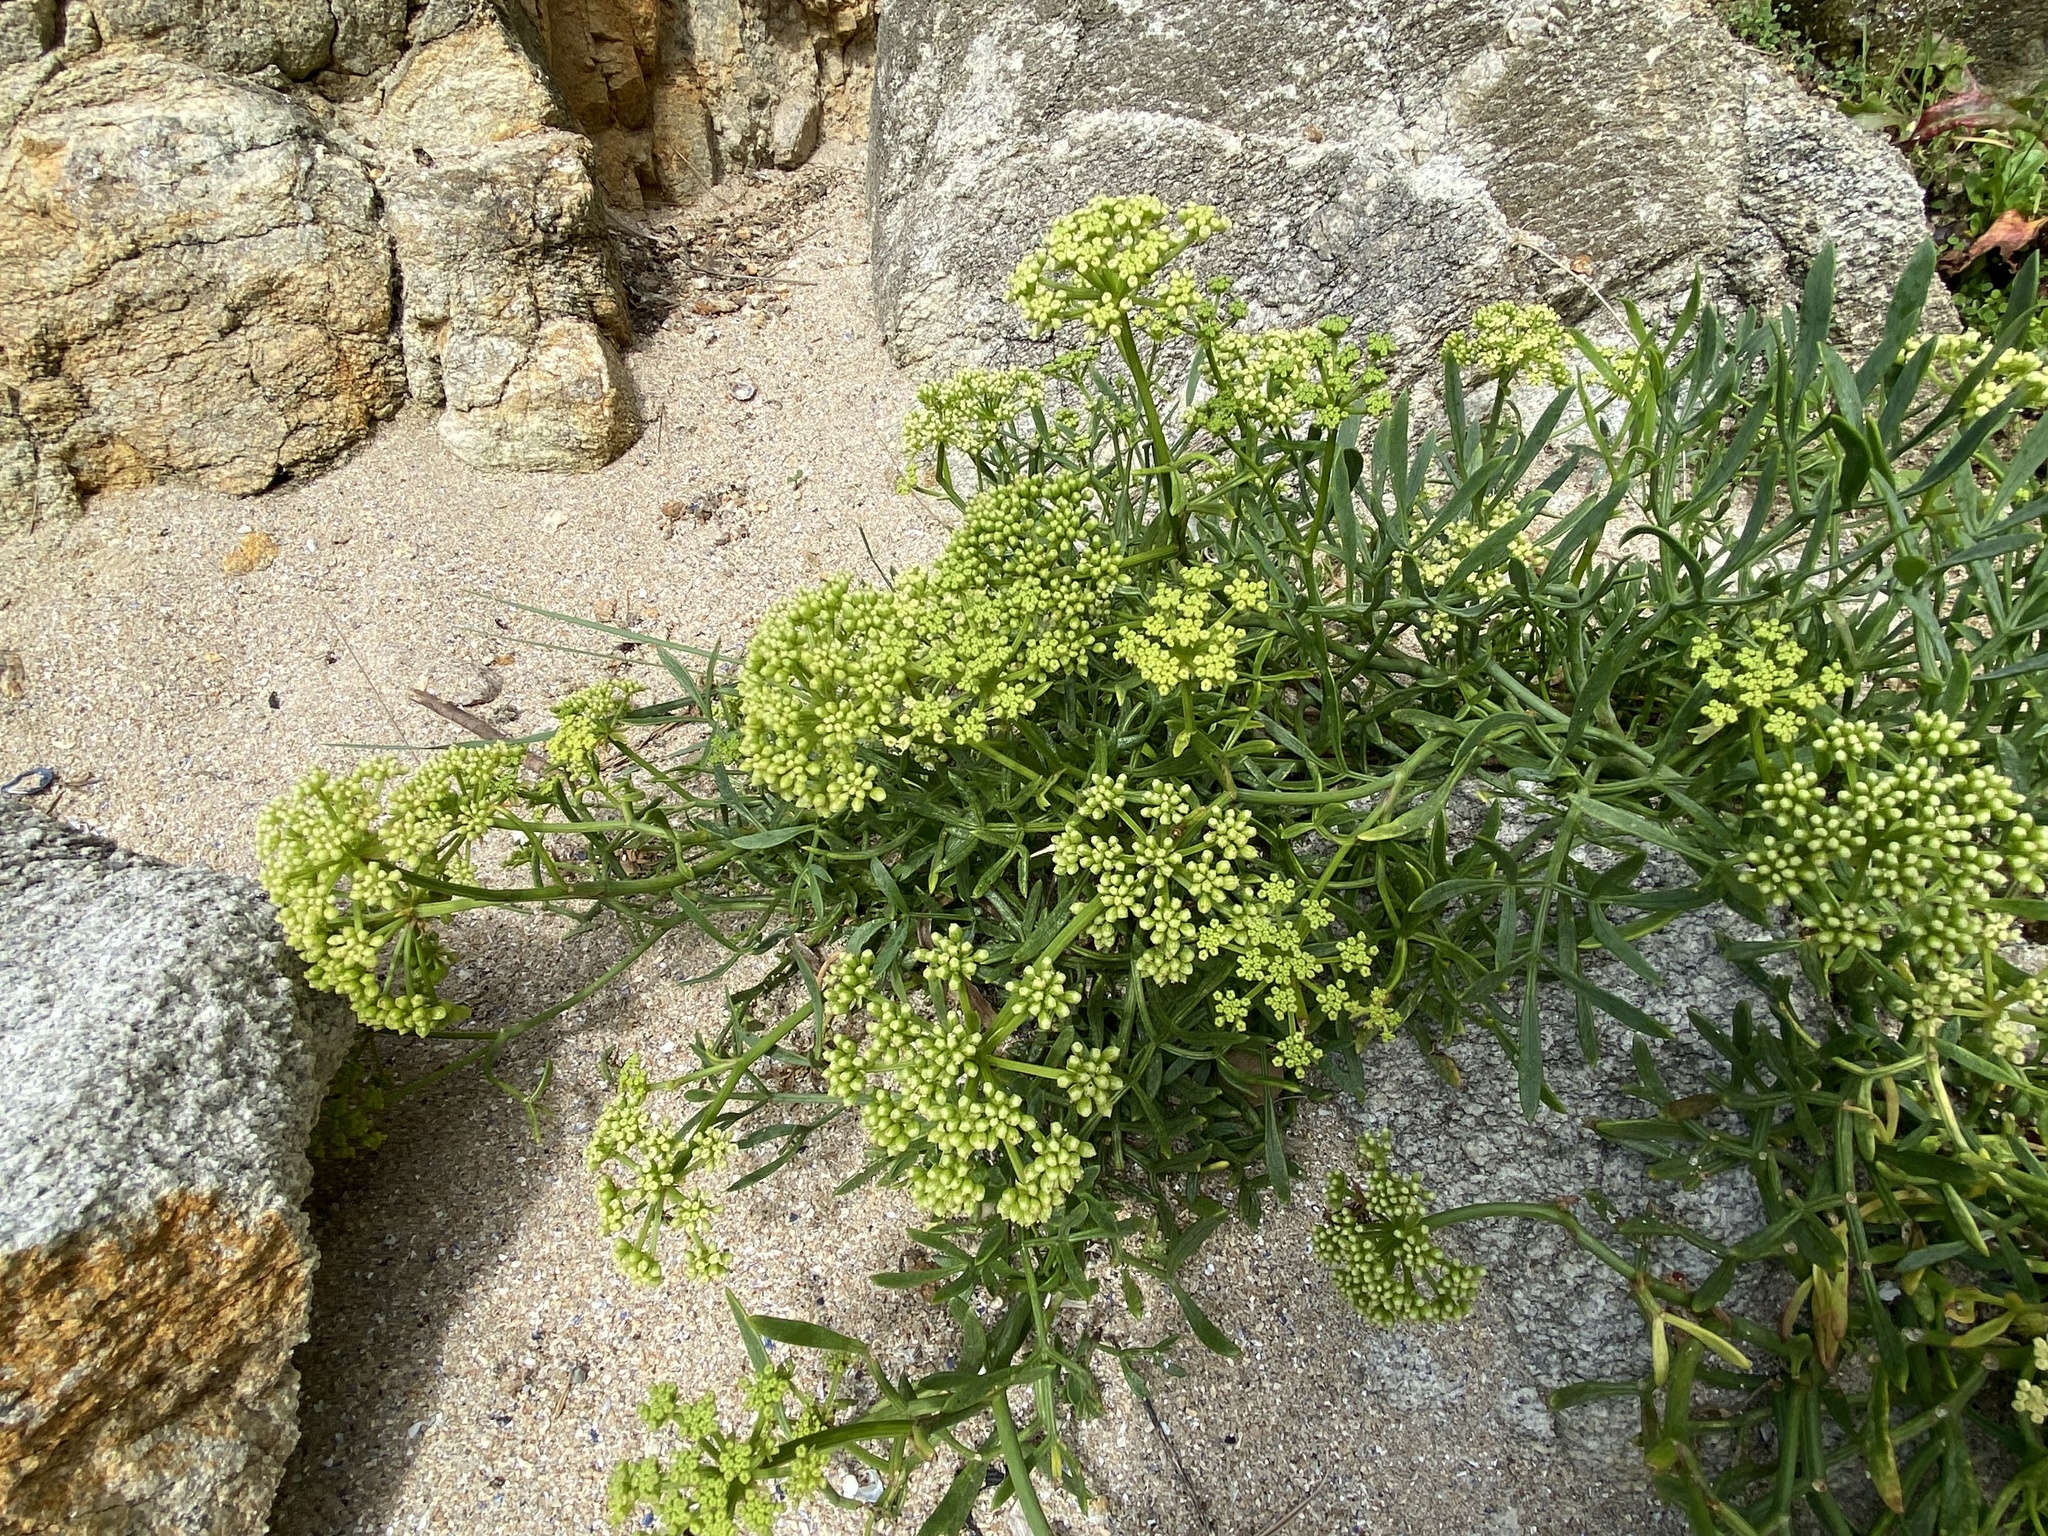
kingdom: Plantae
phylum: Tracheophyta
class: Magnoliopsida
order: Apiales
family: Apiaceae
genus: Crithmum
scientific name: Crithmum maritimum
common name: Rock samphire
